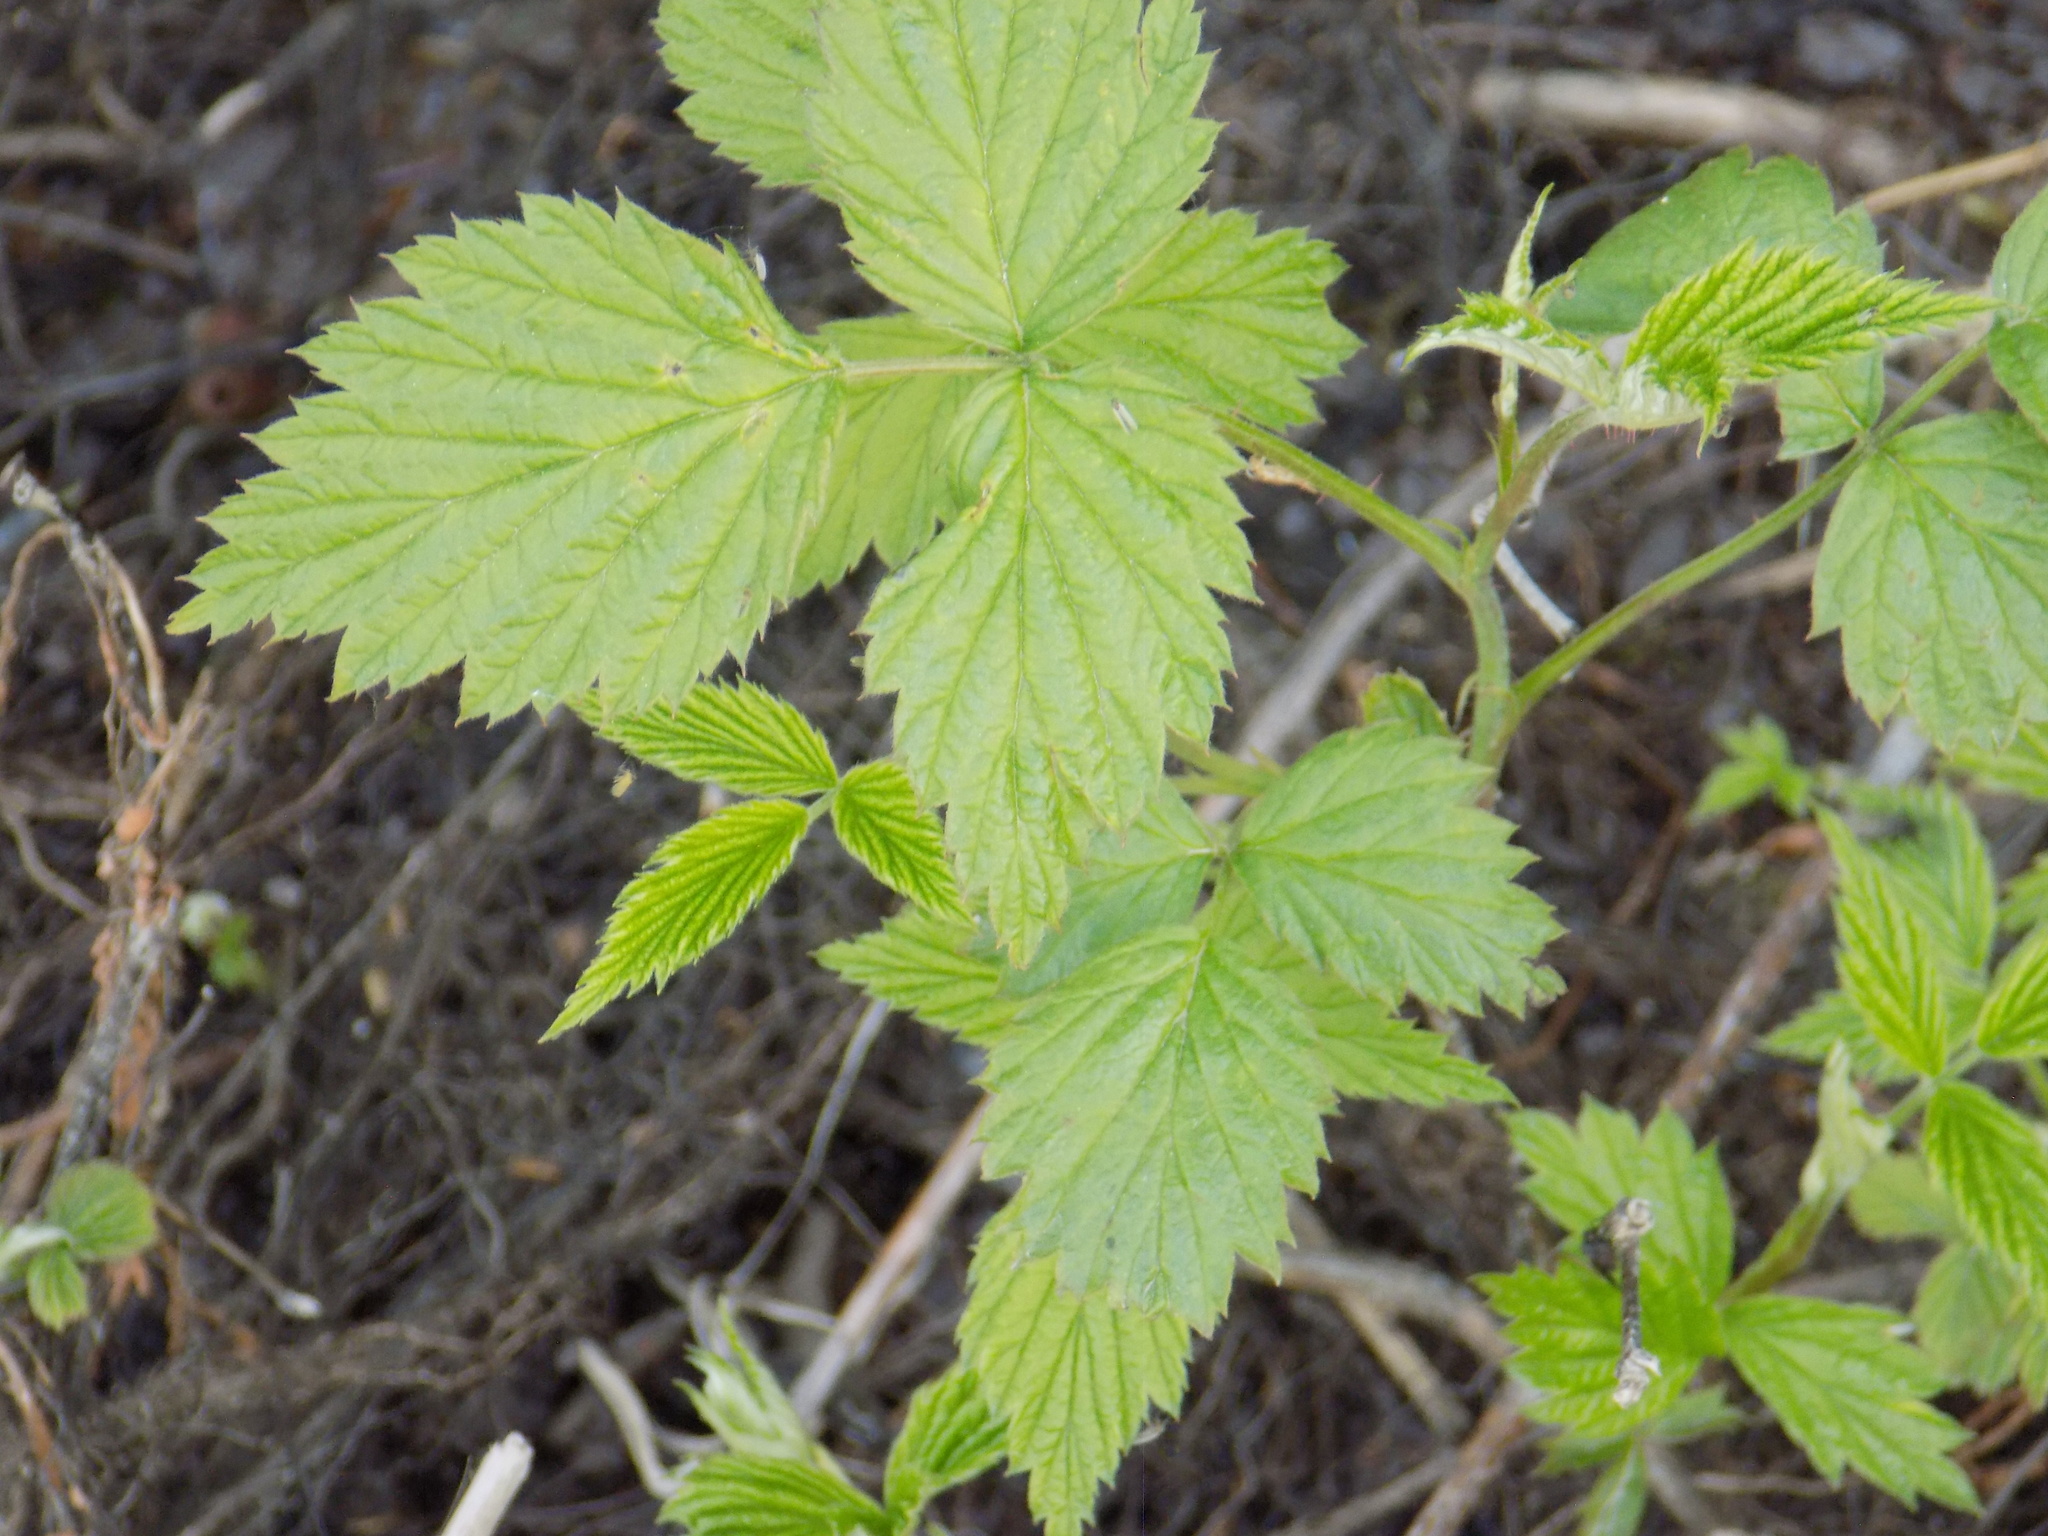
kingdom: Plantae
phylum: Tracheophyta
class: Magnoliopsida
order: Rosales
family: Rosaceae
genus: Rubus
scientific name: Rubus idaeus
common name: Raspberry
